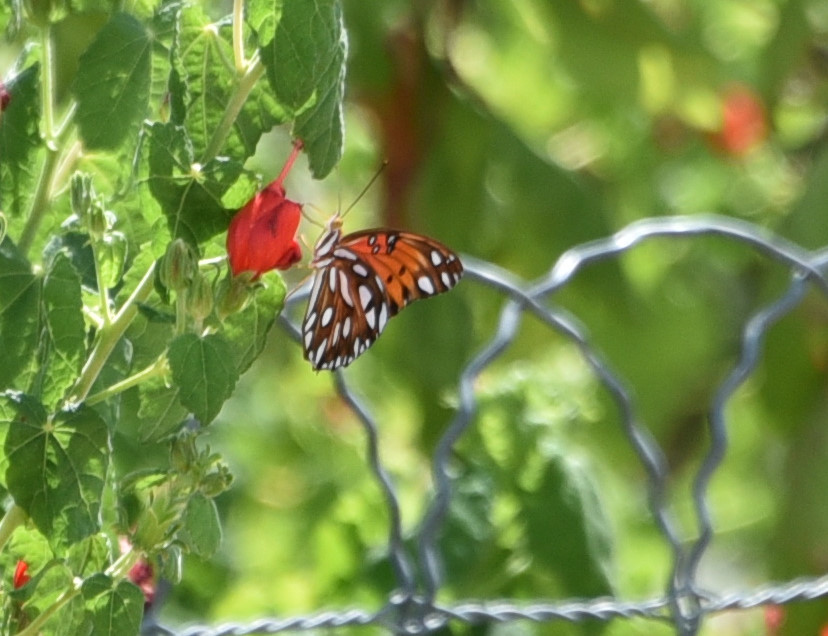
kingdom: Animalia
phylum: Arthropoda
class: Insecta
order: Lepidoptera
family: Nymphalidae
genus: Dione
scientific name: Dione vanillae
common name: Gulf fritillary
